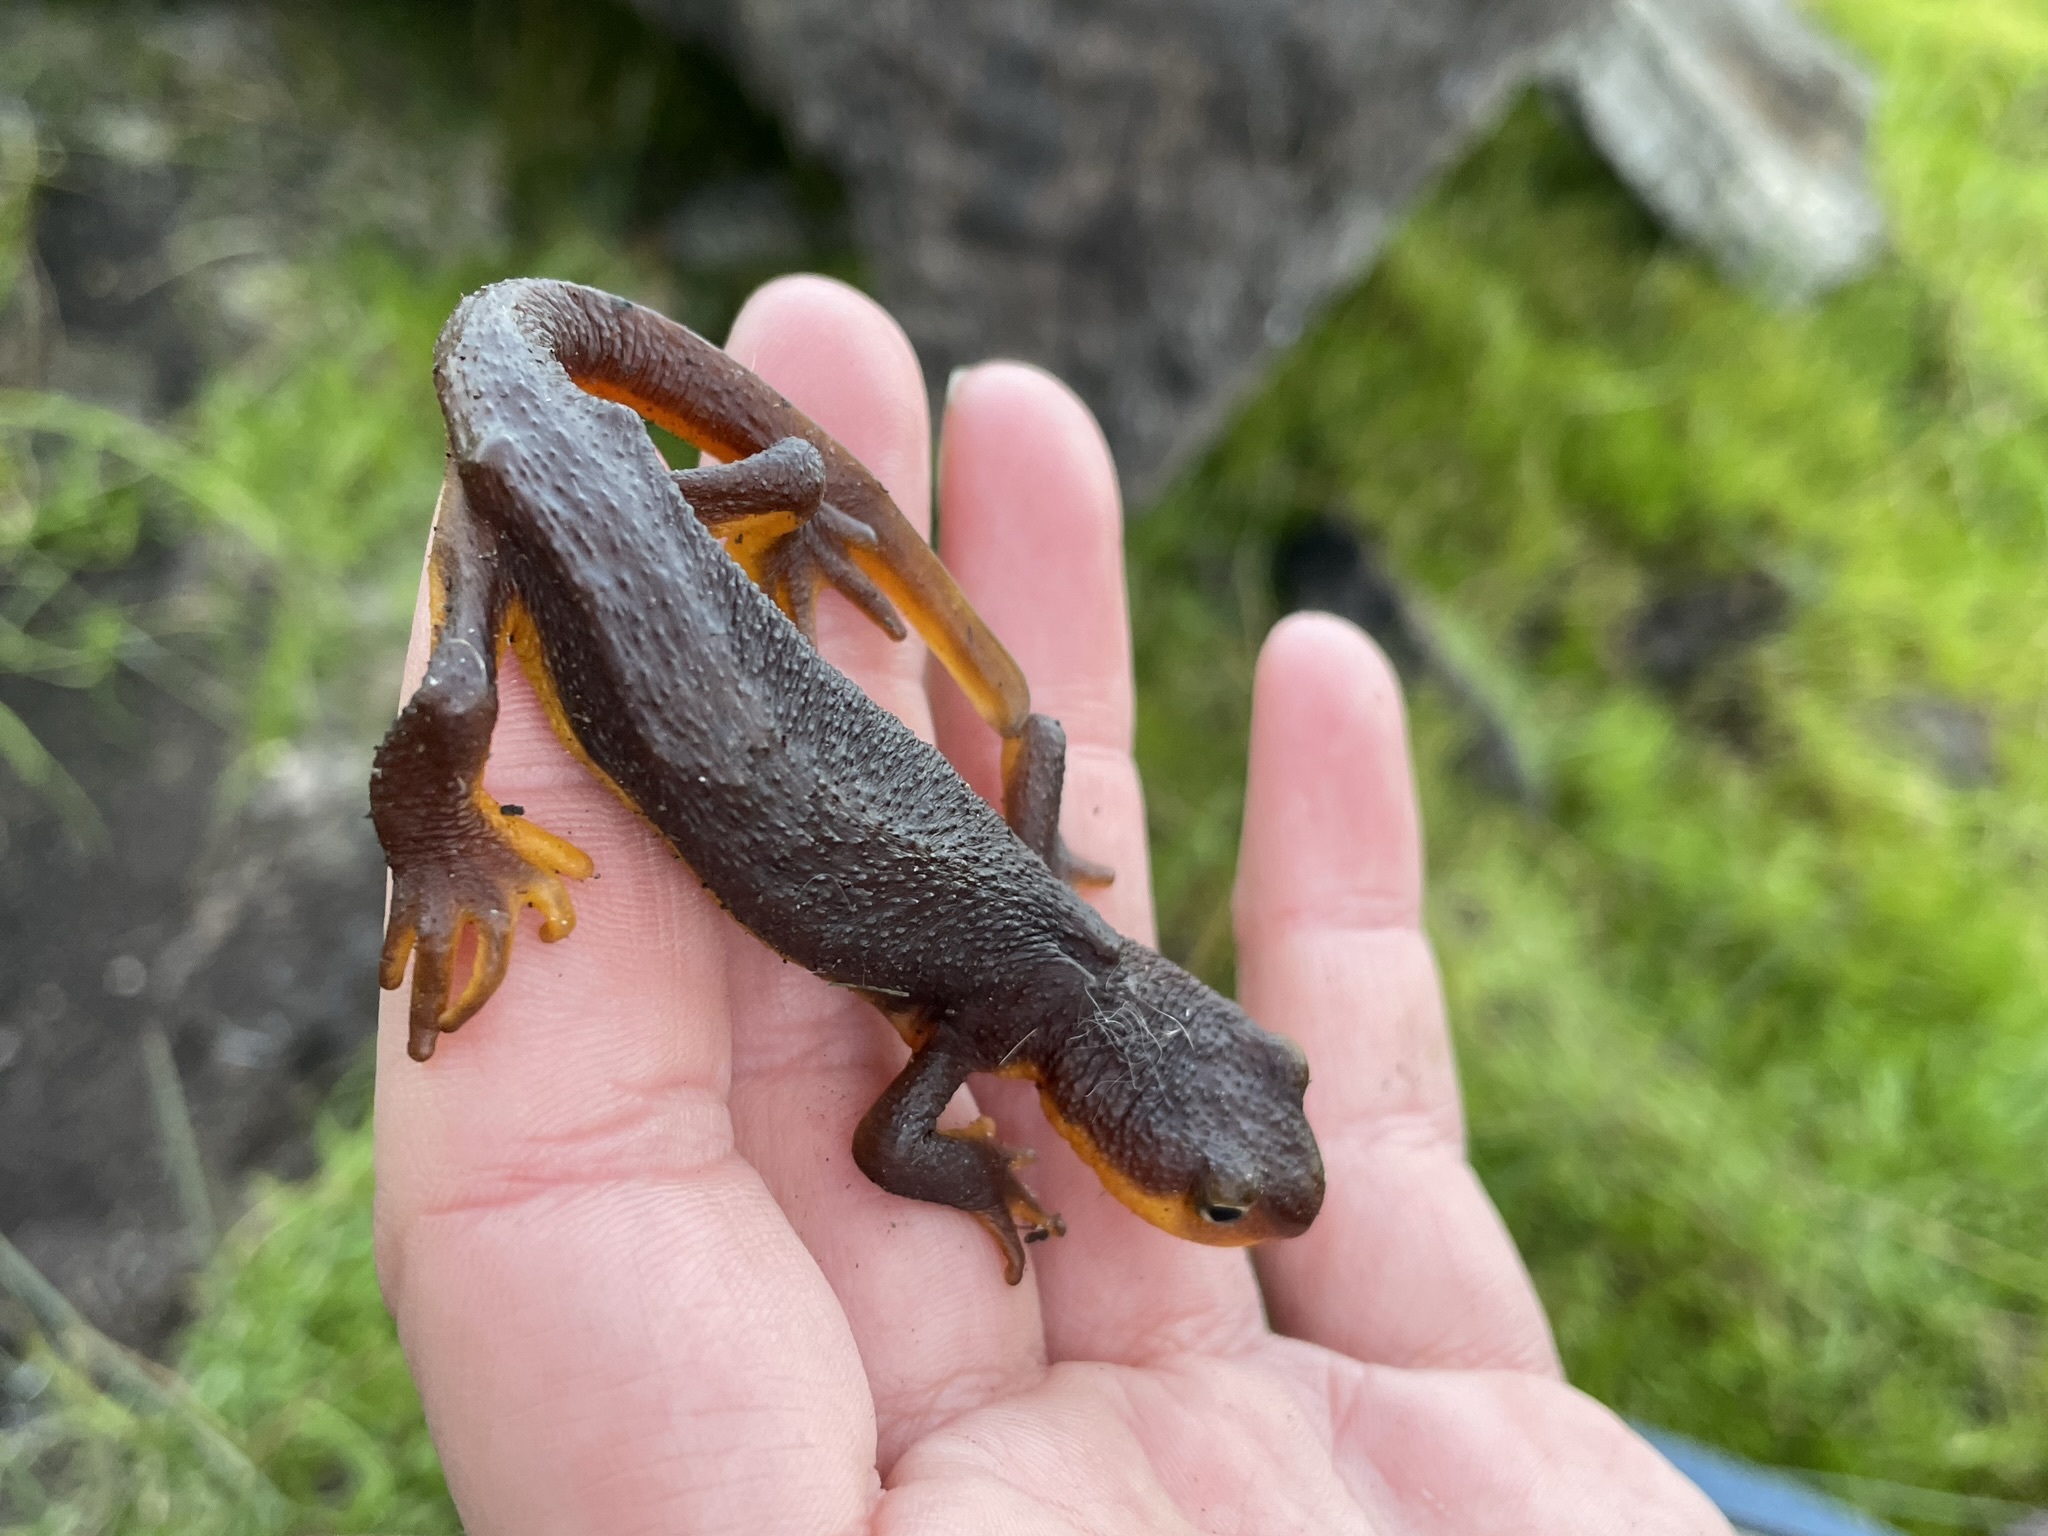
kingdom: Animalia
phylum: Chordata
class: Amphibia
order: Caudata
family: Salamandridae
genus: Taricha
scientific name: Taricha torosa
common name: California newt
